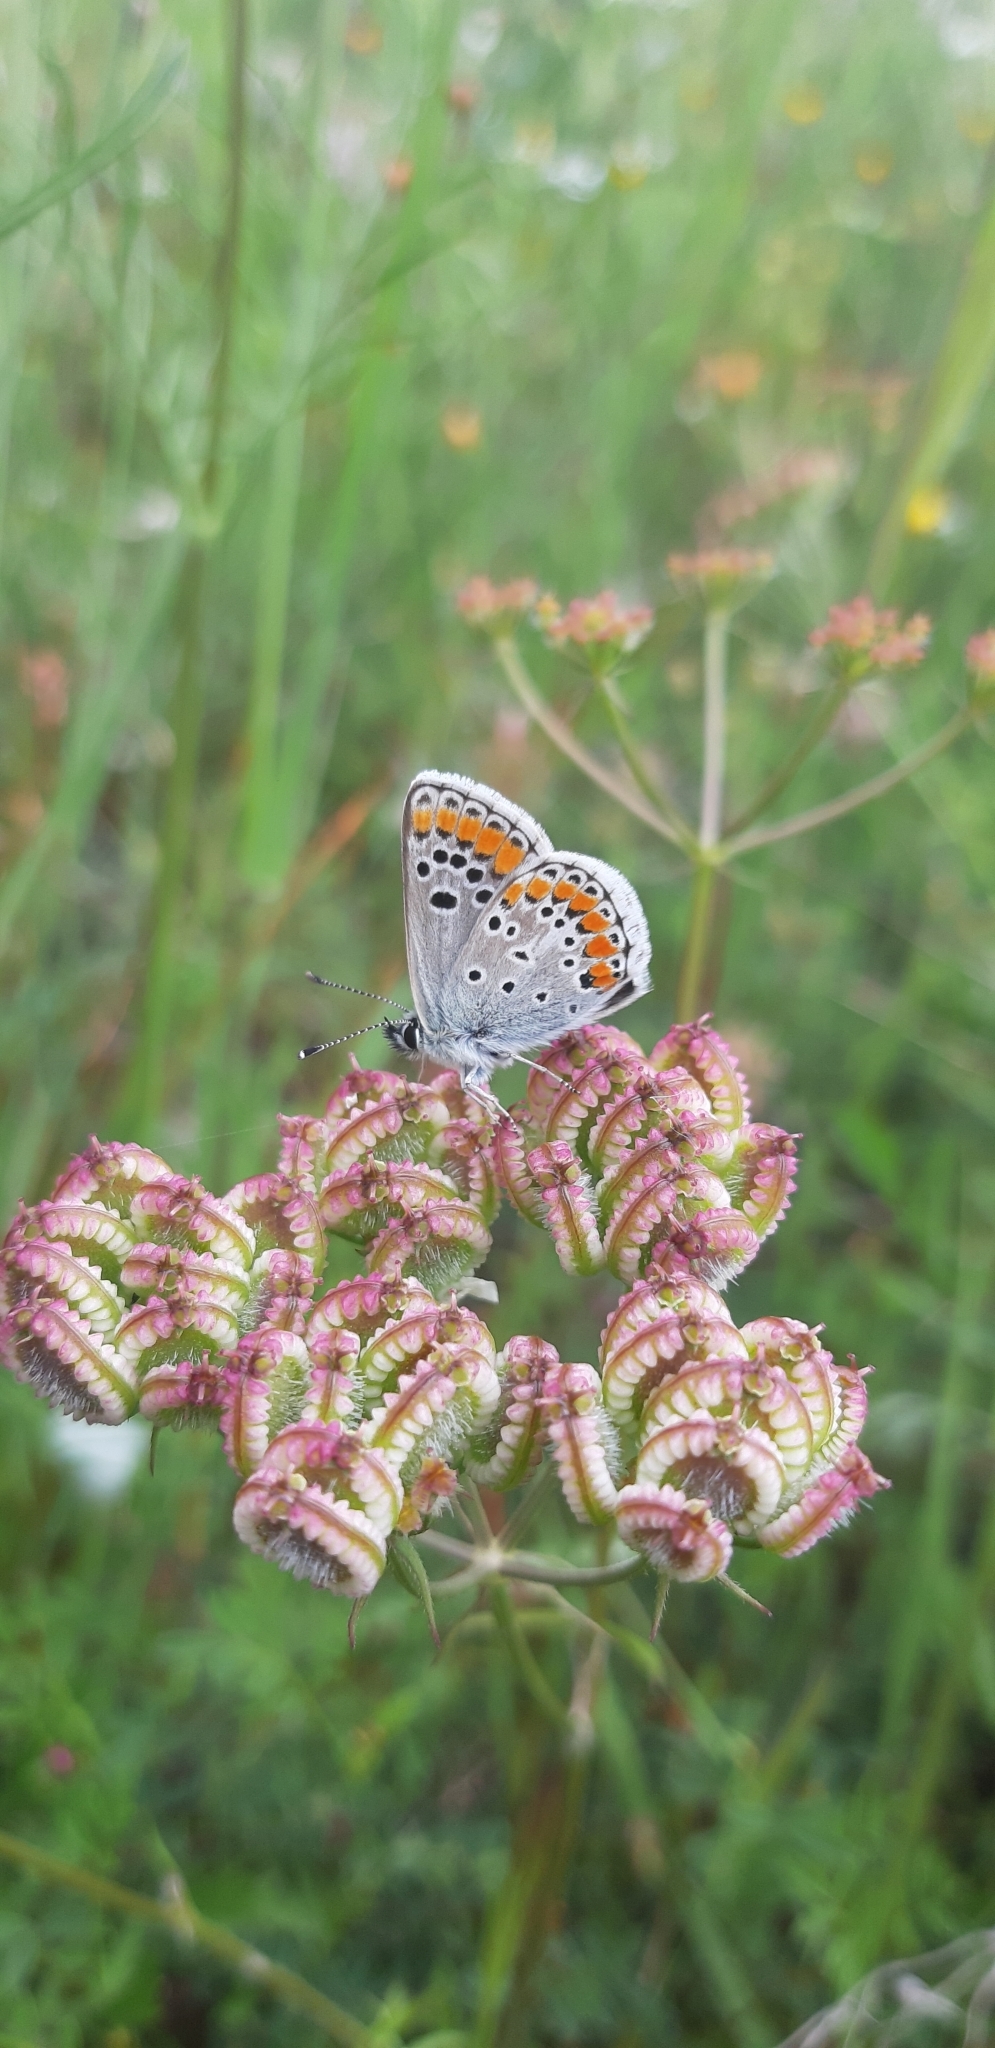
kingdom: Animalia
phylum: Arthropoda
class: Insecta
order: Lepidoptera
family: Lycaenidae
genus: Aricia
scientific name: Aricia agestis
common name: Brown argus
